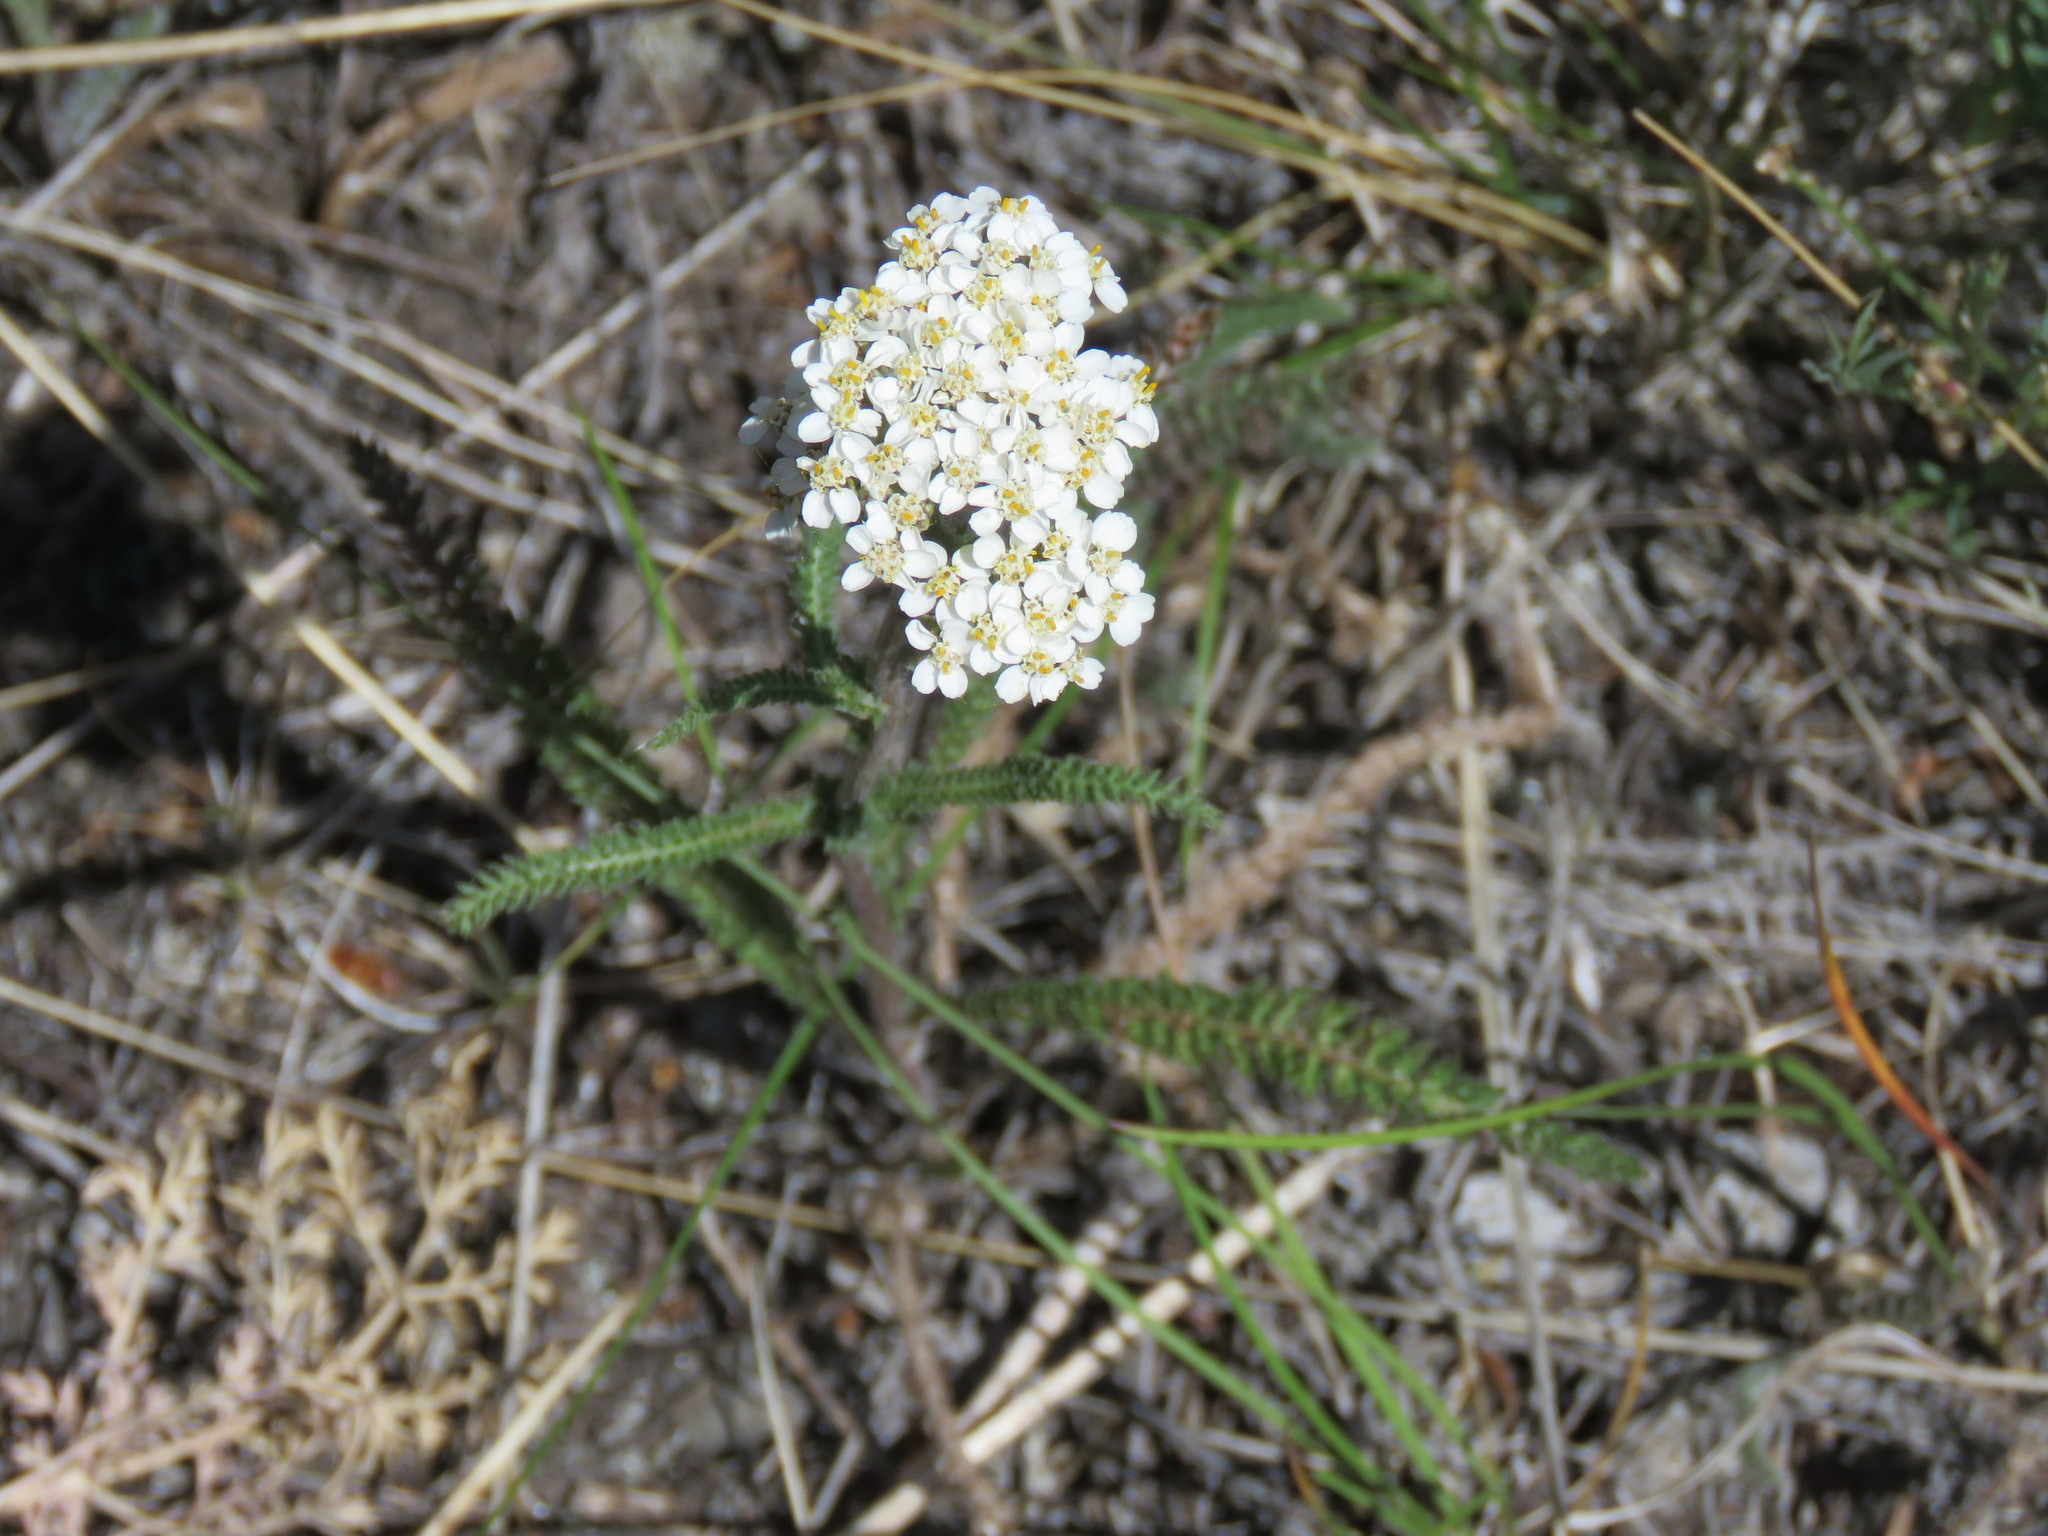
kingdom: Plantae
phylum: Tracheophyta
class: Magnoliopsida
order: Asterales
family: Asteraceae
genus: Achillea
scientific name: Achillea millefolium
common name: Yarrow
